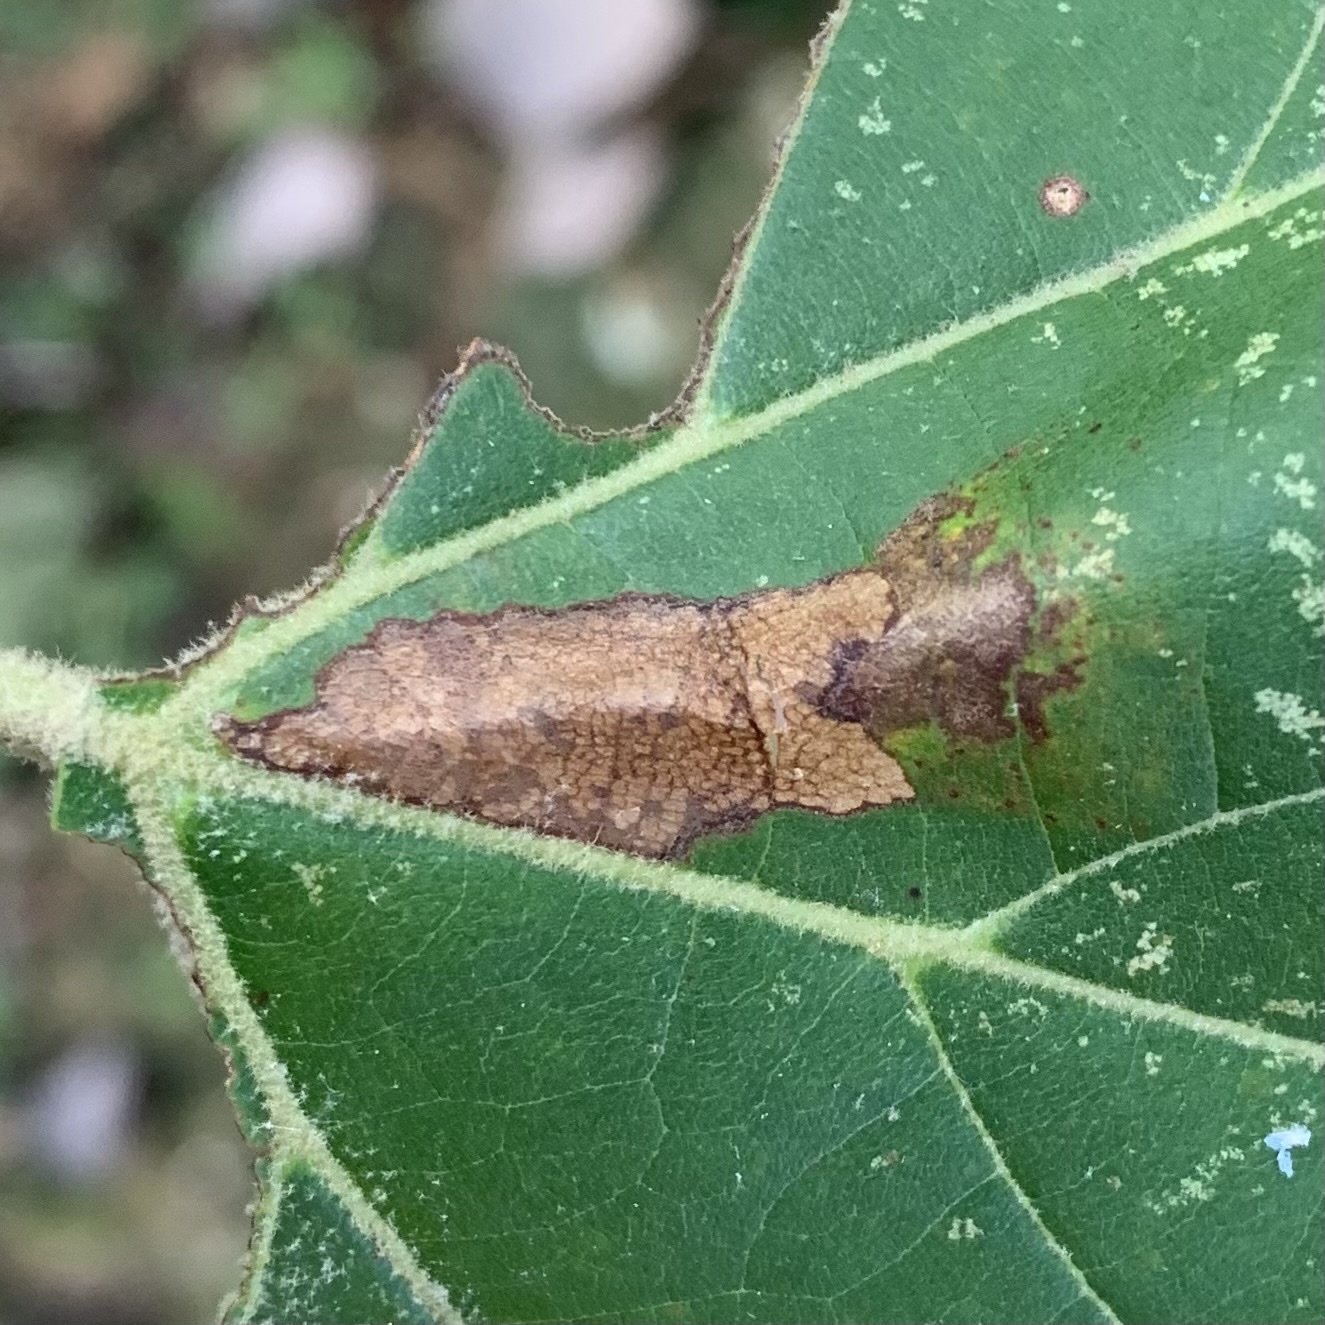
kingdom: Animalia
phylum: Arthropoda
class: Insecta
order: Lepidoptera
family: Tortricidae
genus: Ancylis
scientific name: Ancylis platanana
